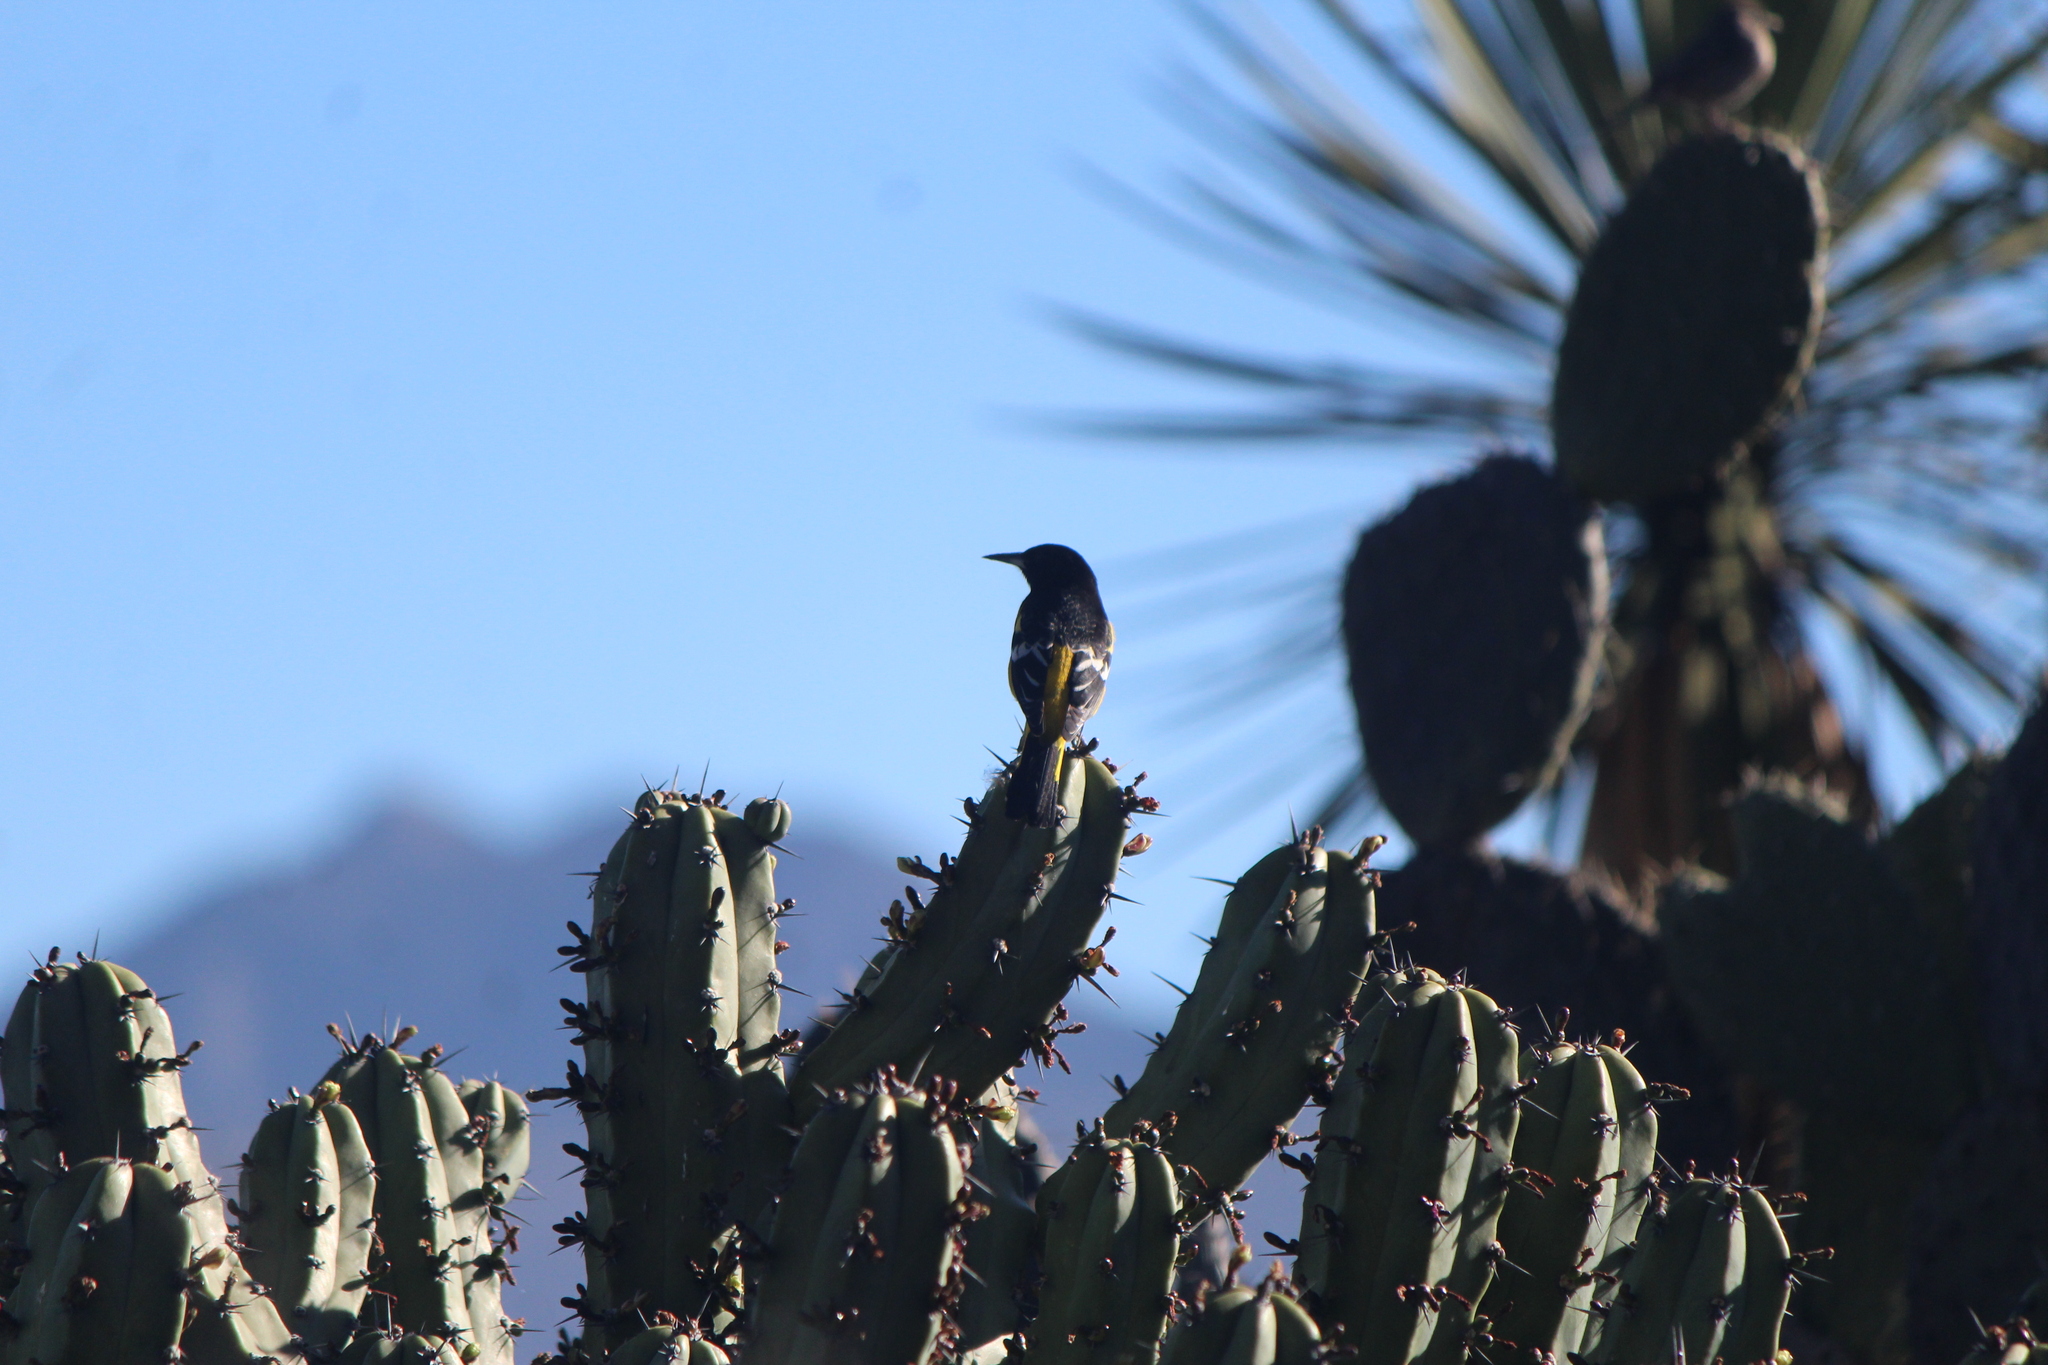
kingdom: Animalia
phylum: Chordata
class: Aves
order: Passeriformes
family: Icteridae
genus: Icterus
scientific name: Icterus parisorum
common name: Scott's oriole
